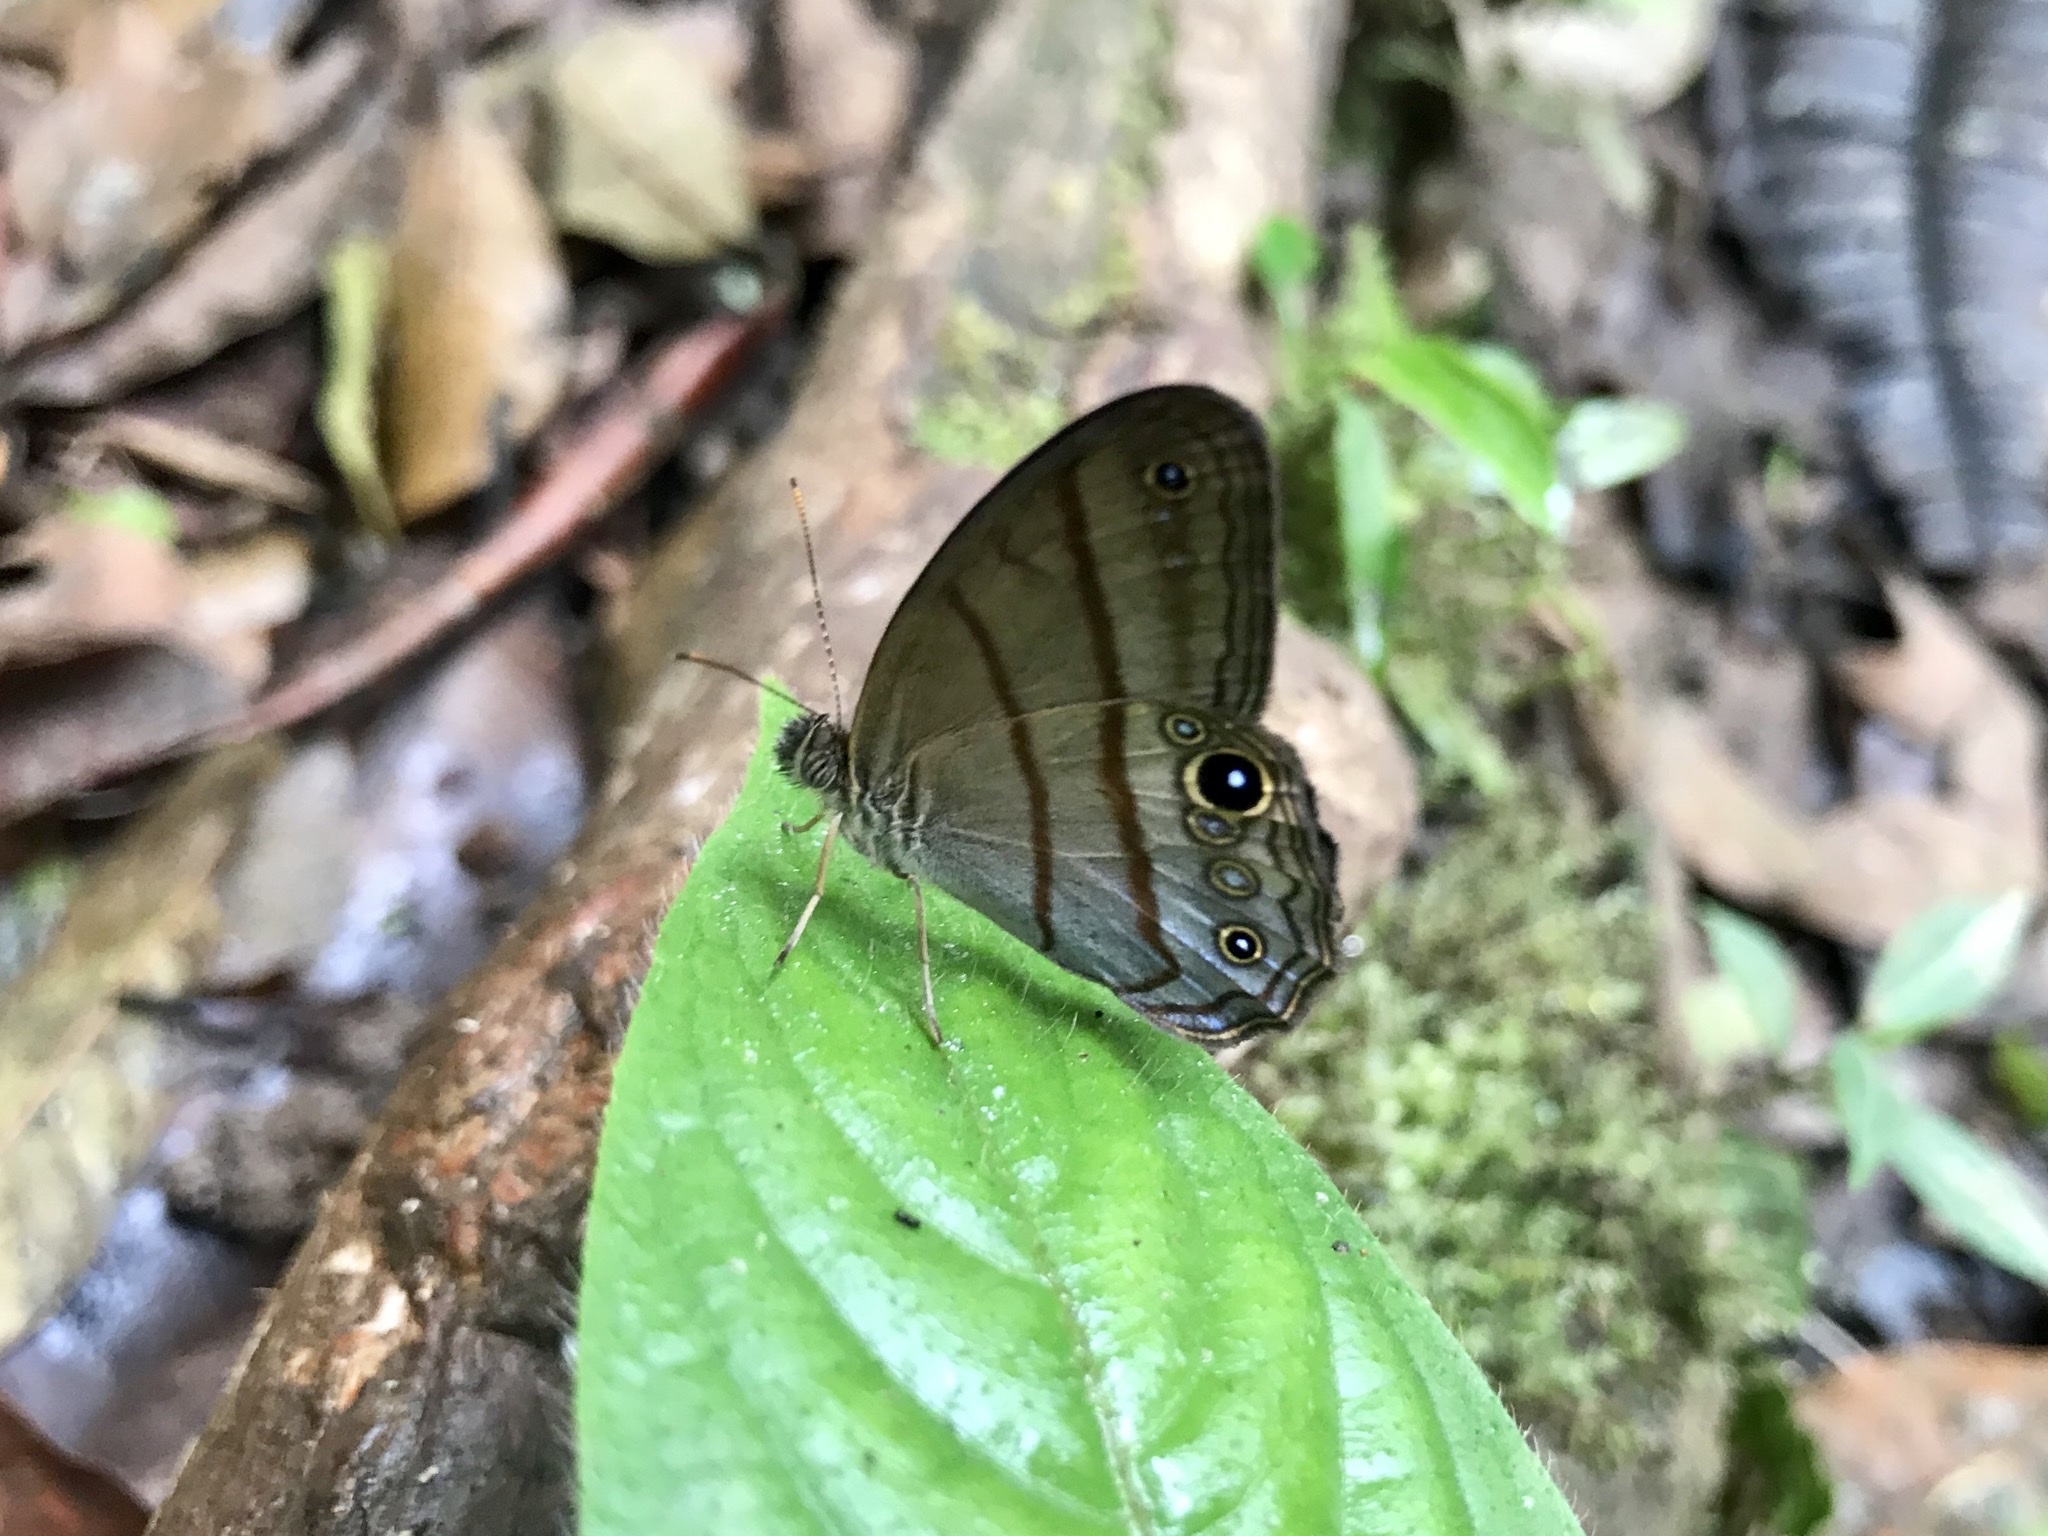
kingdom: Animalia
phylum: Arthropoda
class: Insecta
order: Lepidoptera
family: Nymphalidae
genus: Amiga
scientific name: Amiga arnaca
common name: Blue-topped satyr
